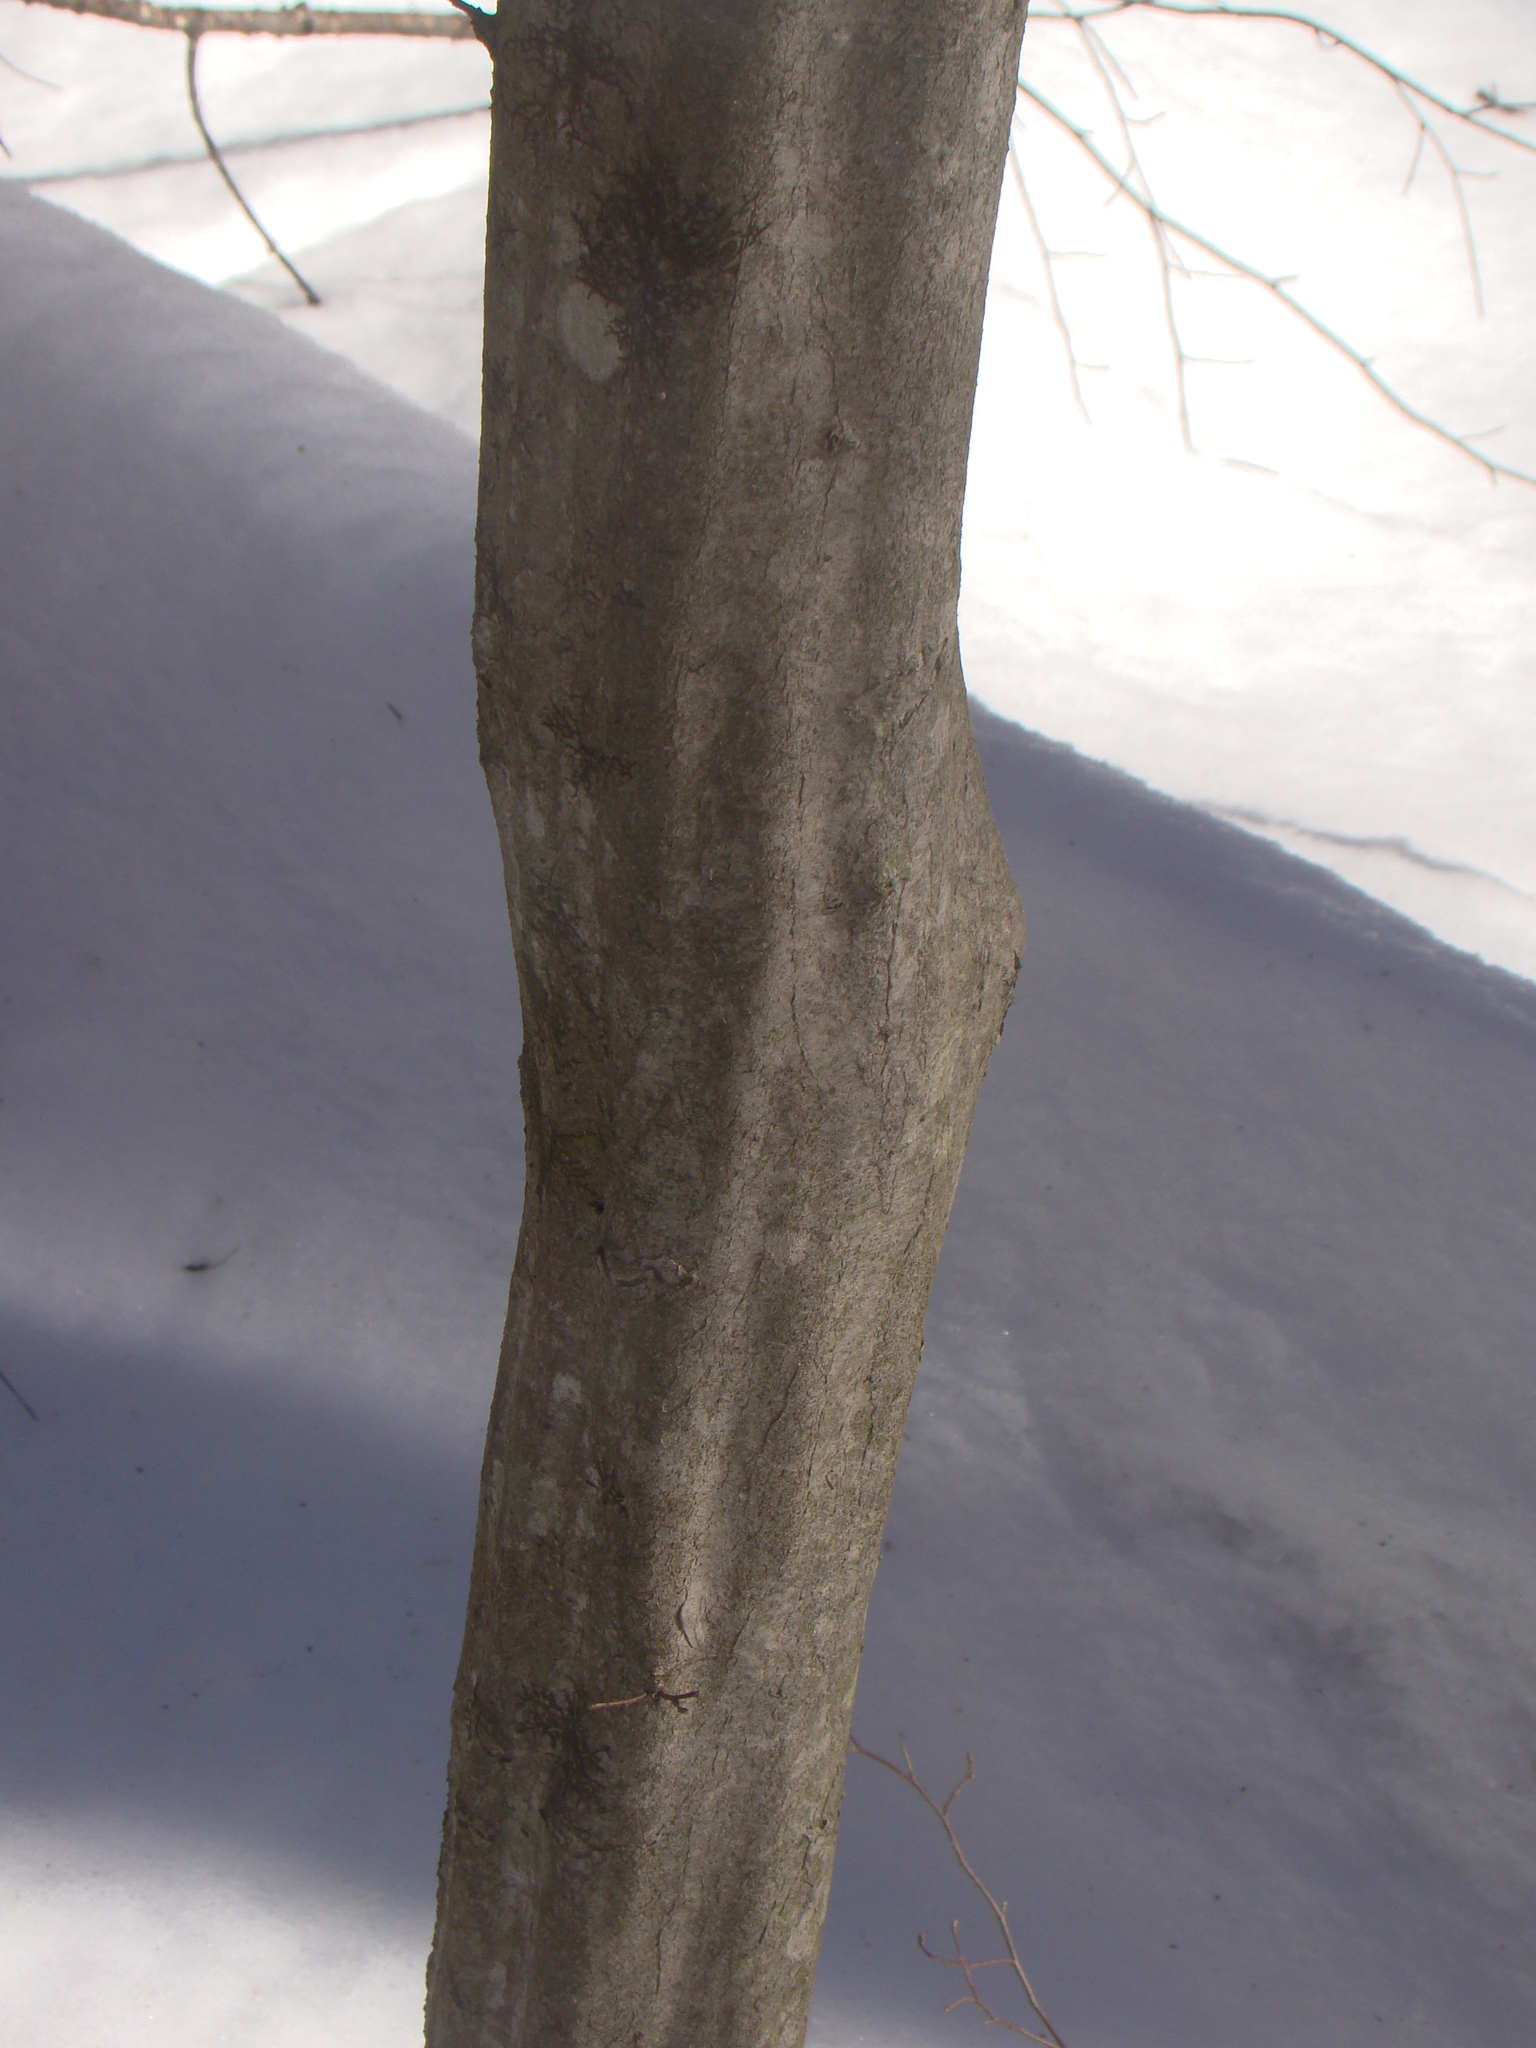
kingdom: Plantae
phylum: Tracheophyta
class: Magnoliopsida
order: Fagales
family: Betulaceae
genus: Carpinus
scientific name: Carpinus caroliniana
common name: American hornbeam
